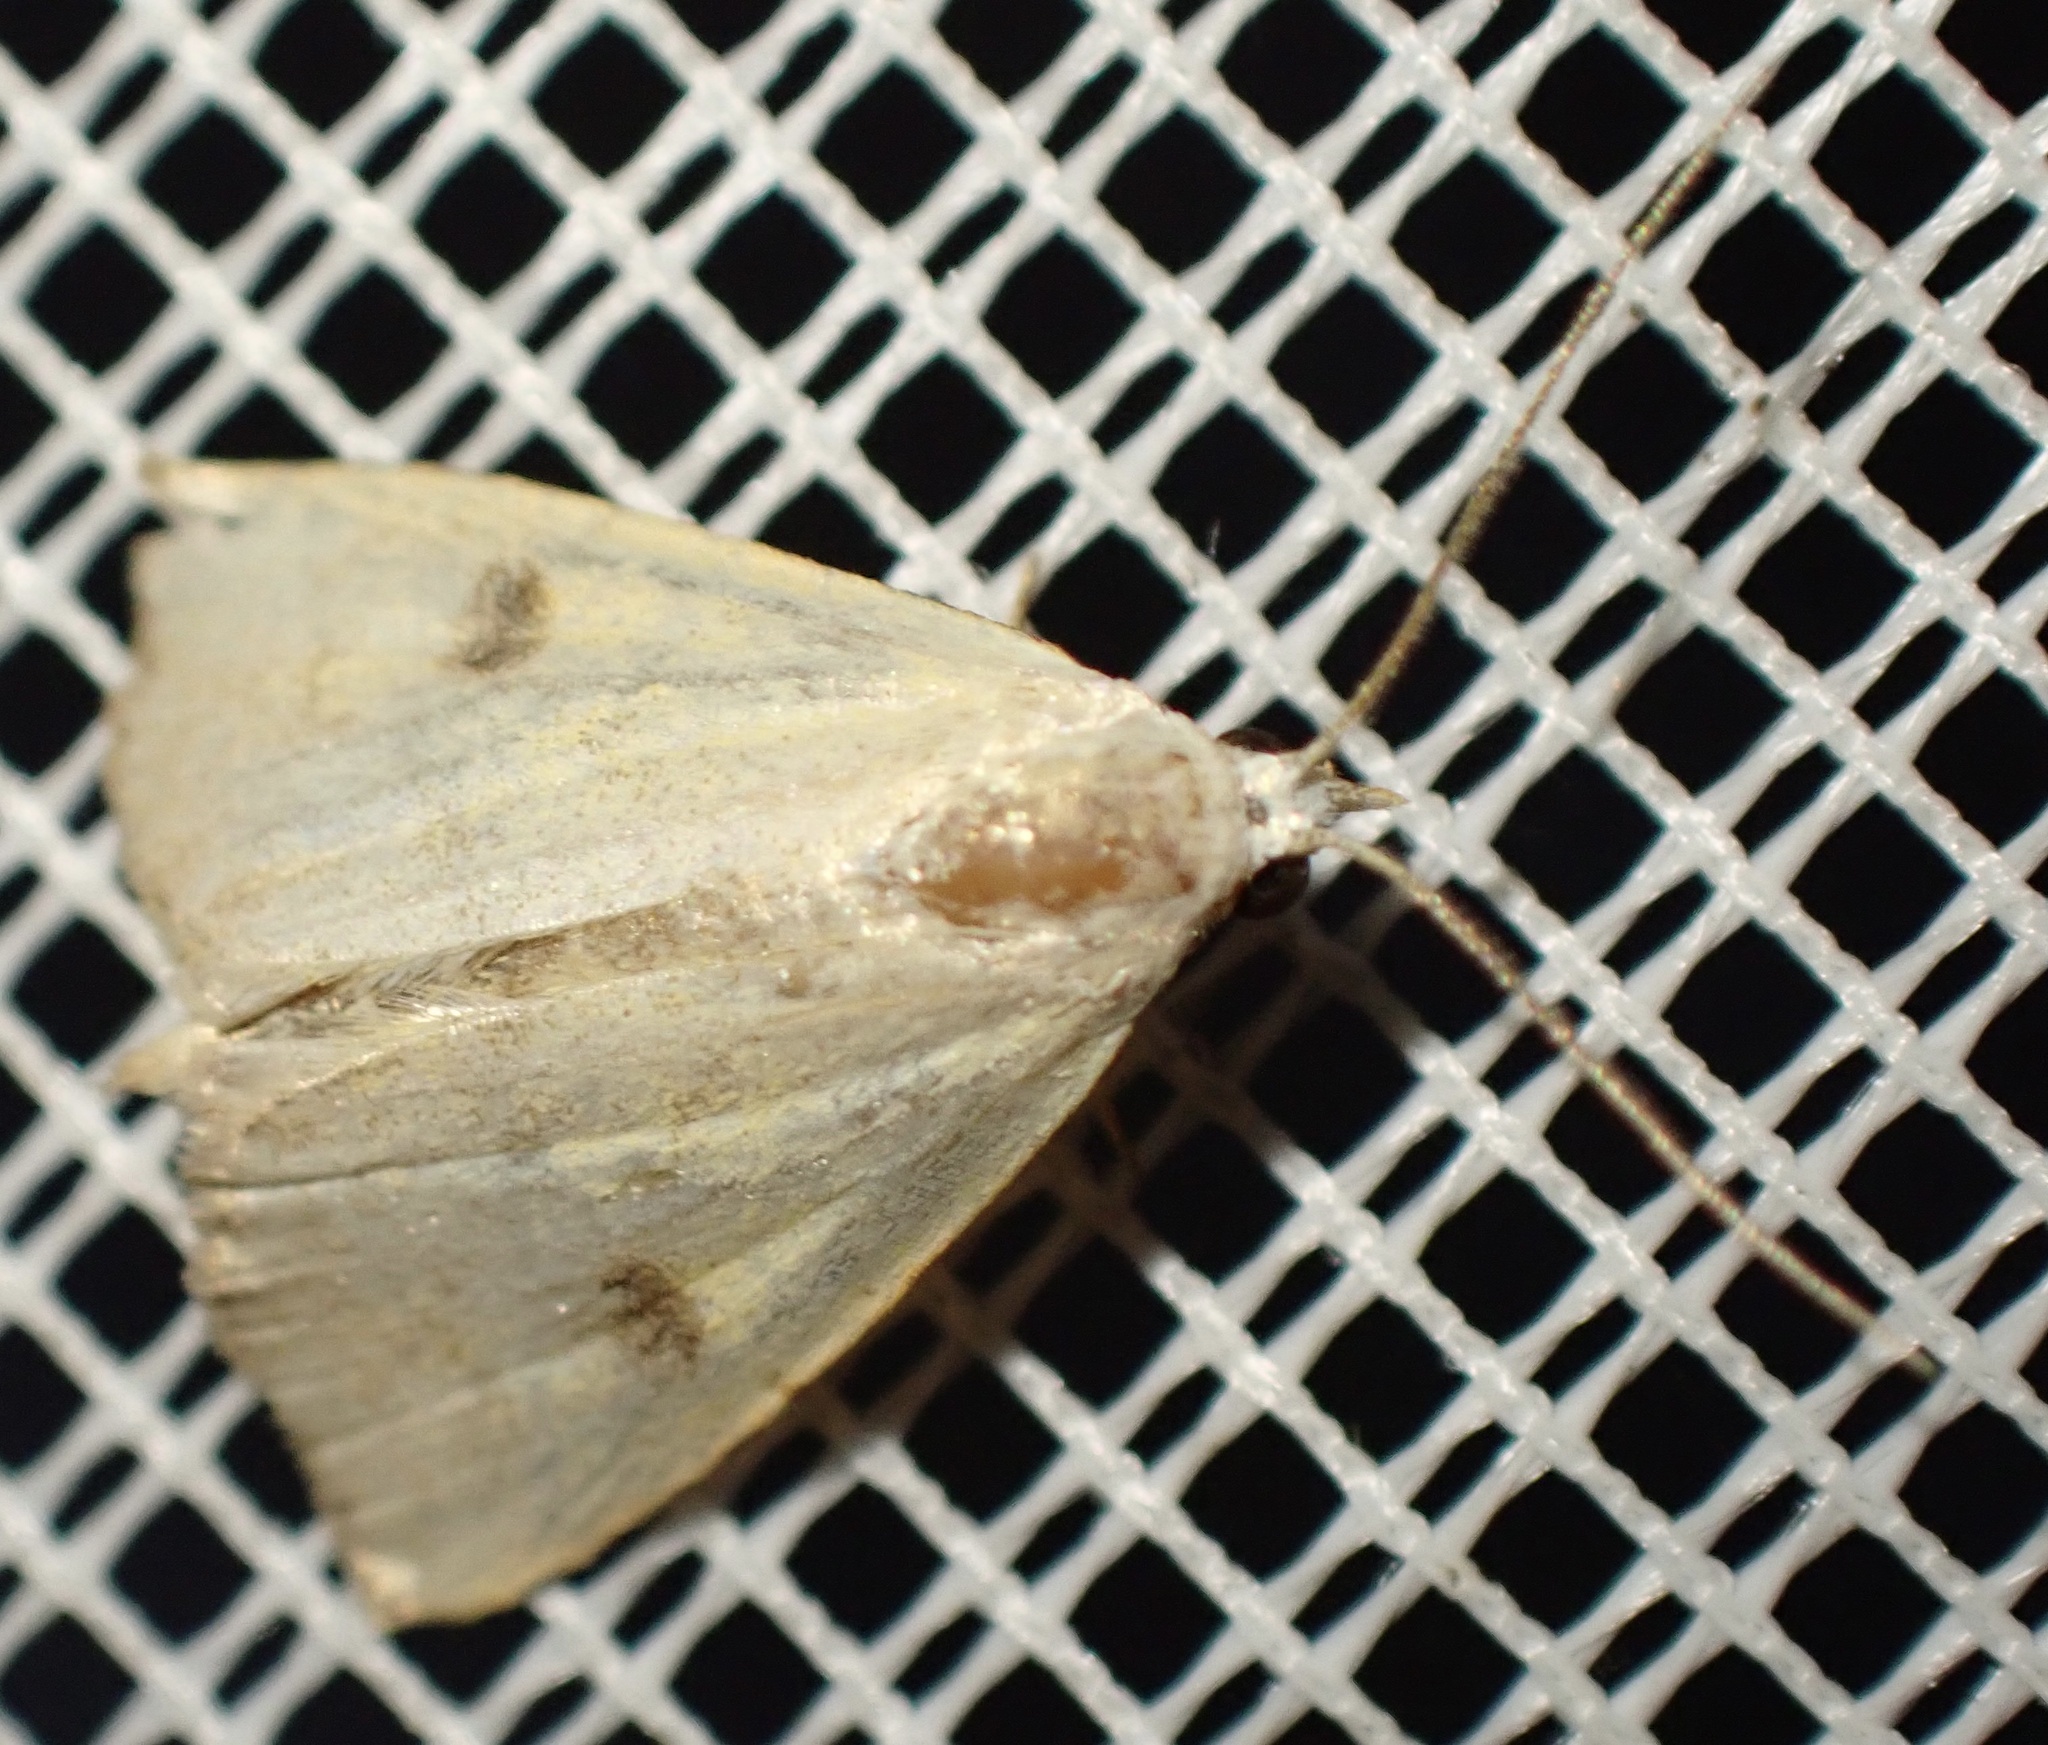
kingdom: Animalia
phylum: Arthropoda
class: Insecta
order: Lepidoptera
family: Erebidae
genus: Rivula
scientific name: Rivula sericealis
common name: Straw dot
